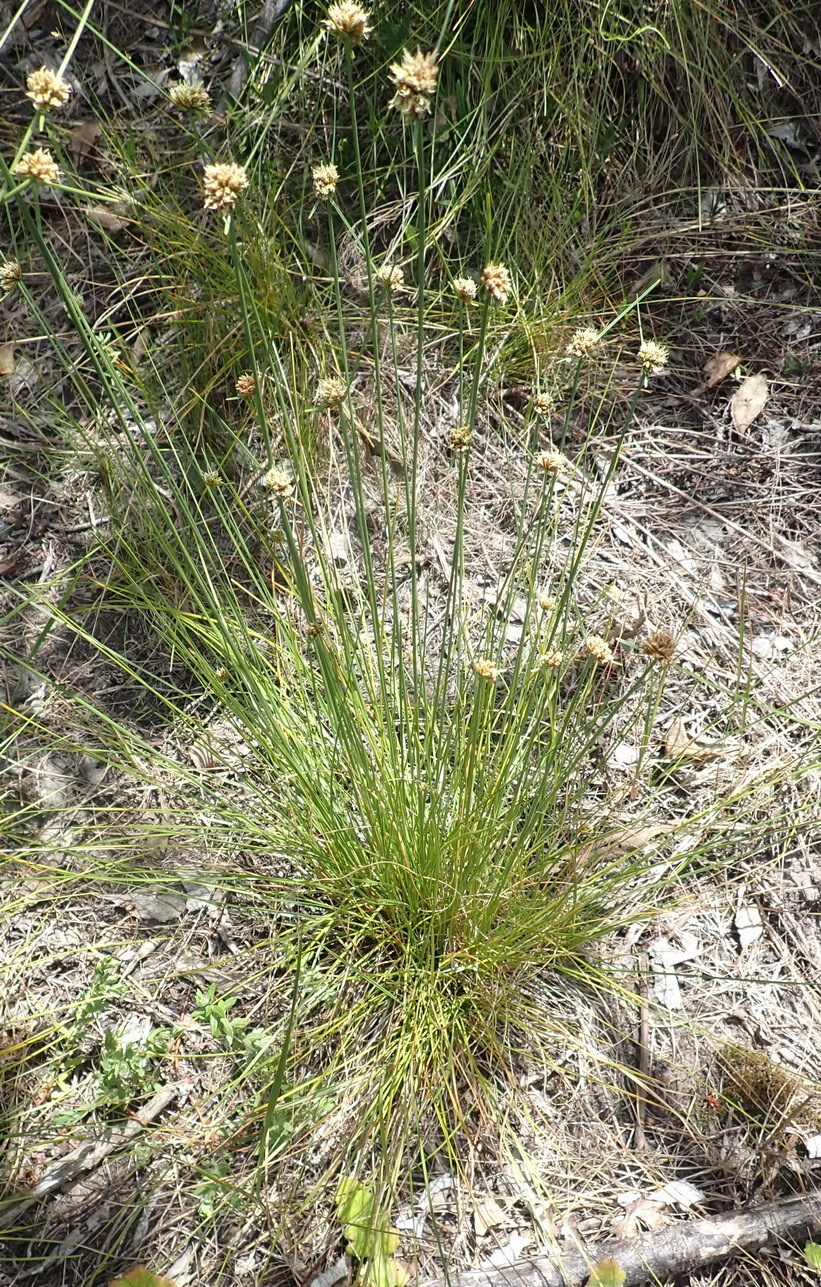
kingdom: Plantae
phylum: Tracheophyta
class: Liliopsida
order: Poales
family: Cyperaceae
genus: Ficinia
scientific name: Ficinia laciniata
